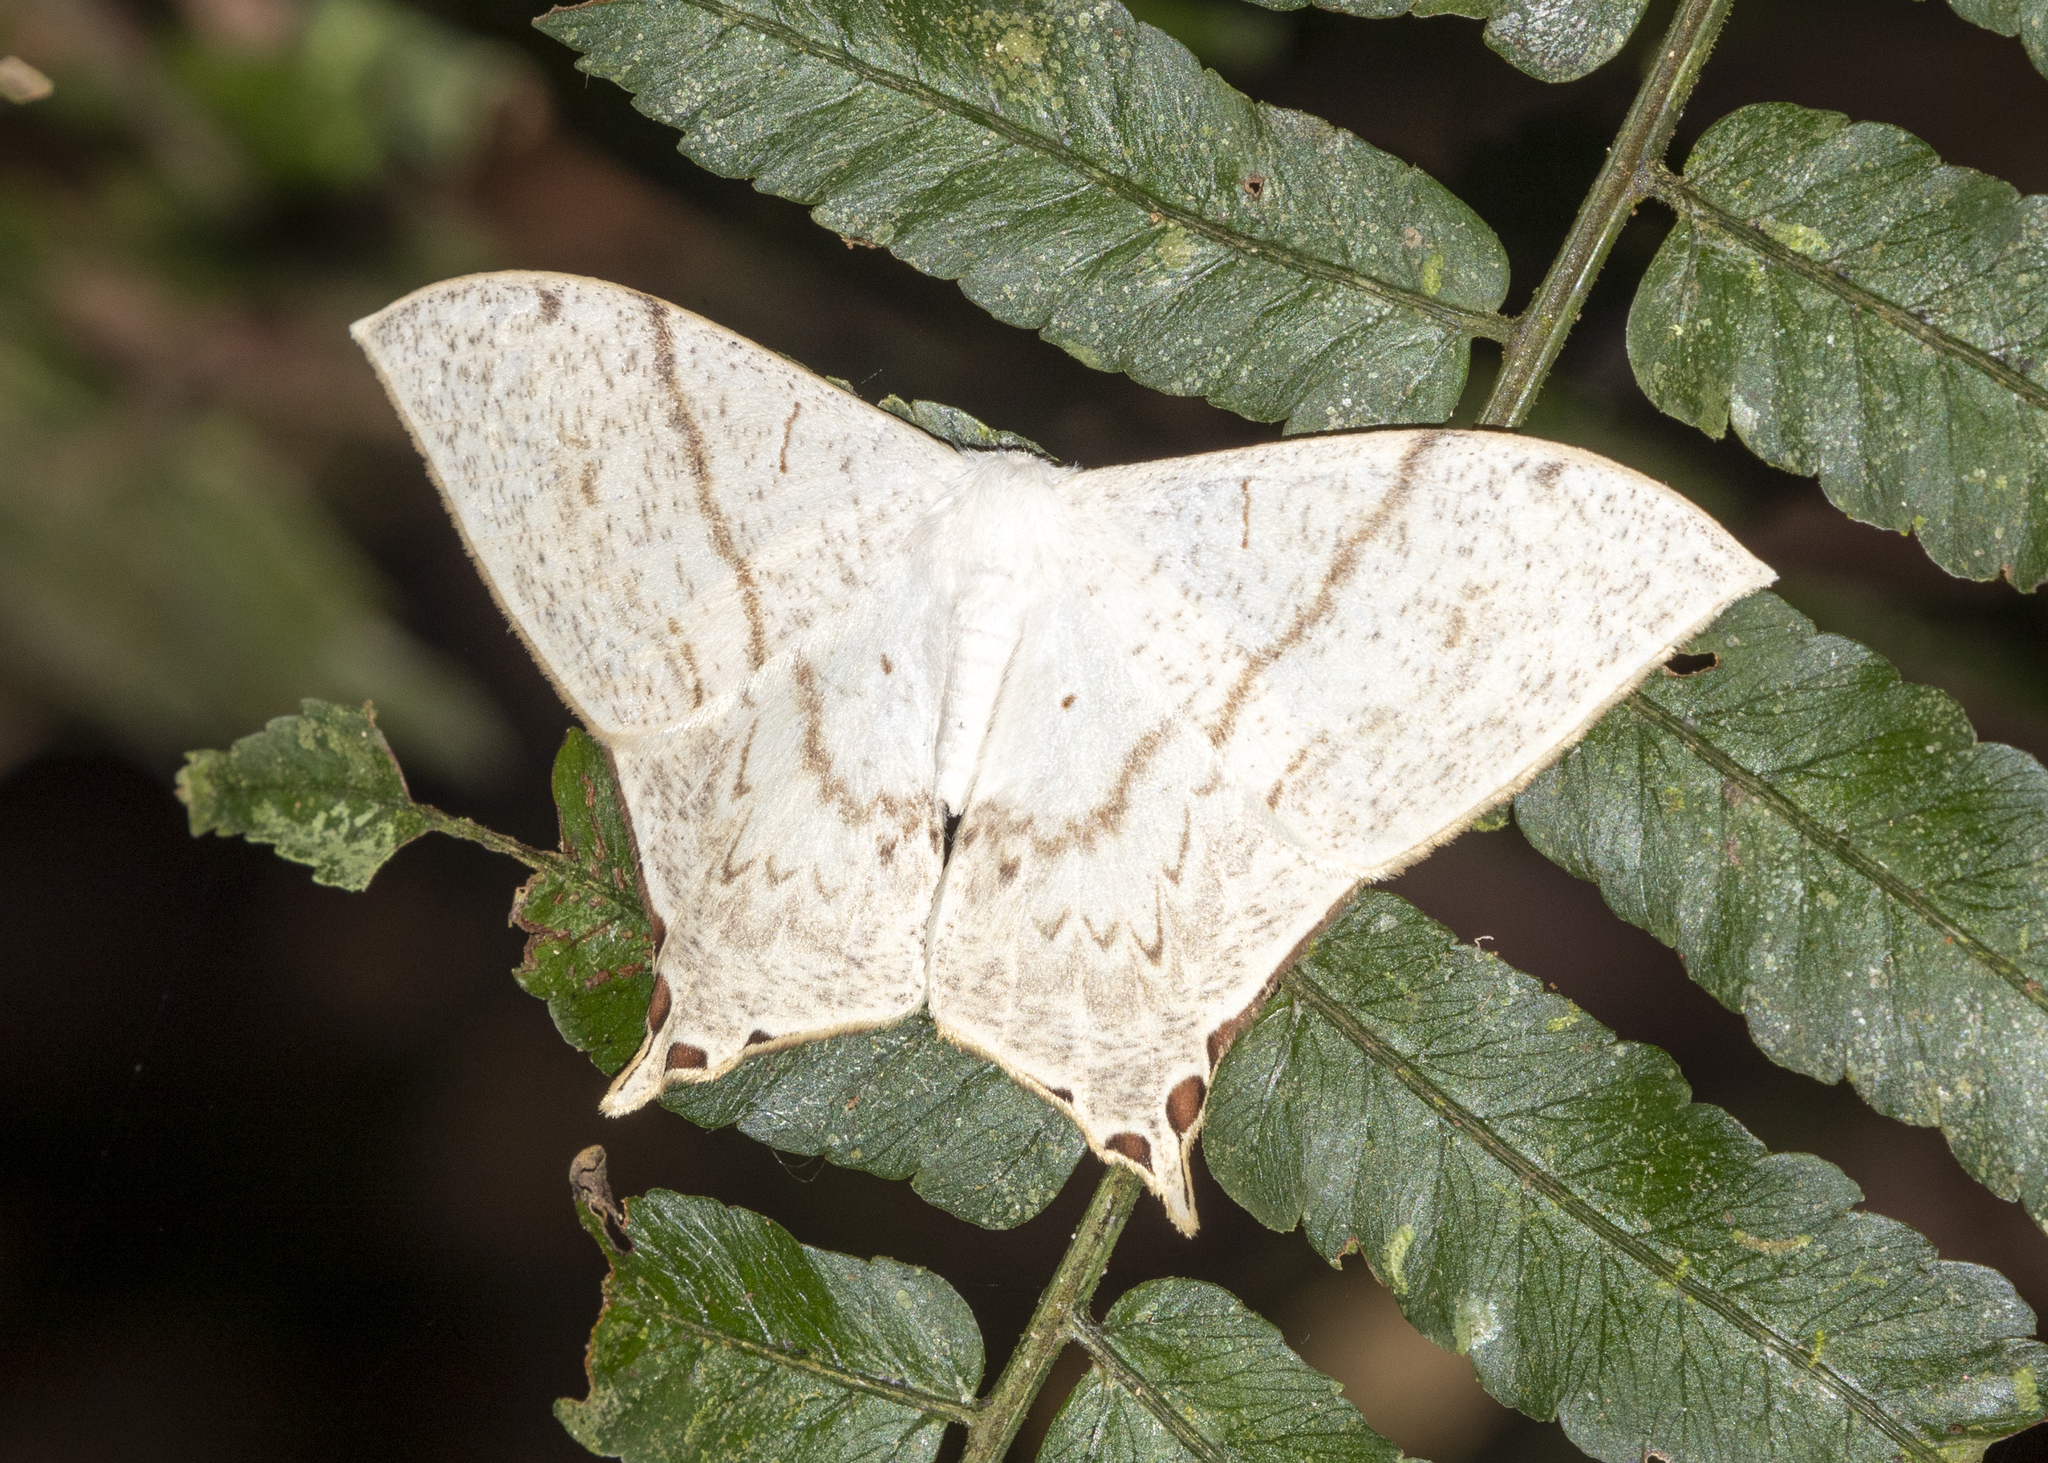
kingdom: Animalia
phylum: Arthropoda
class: Insecta
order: Lepidoptera
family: Saturniidae
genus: Therinia
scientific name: Therinia lactucina
